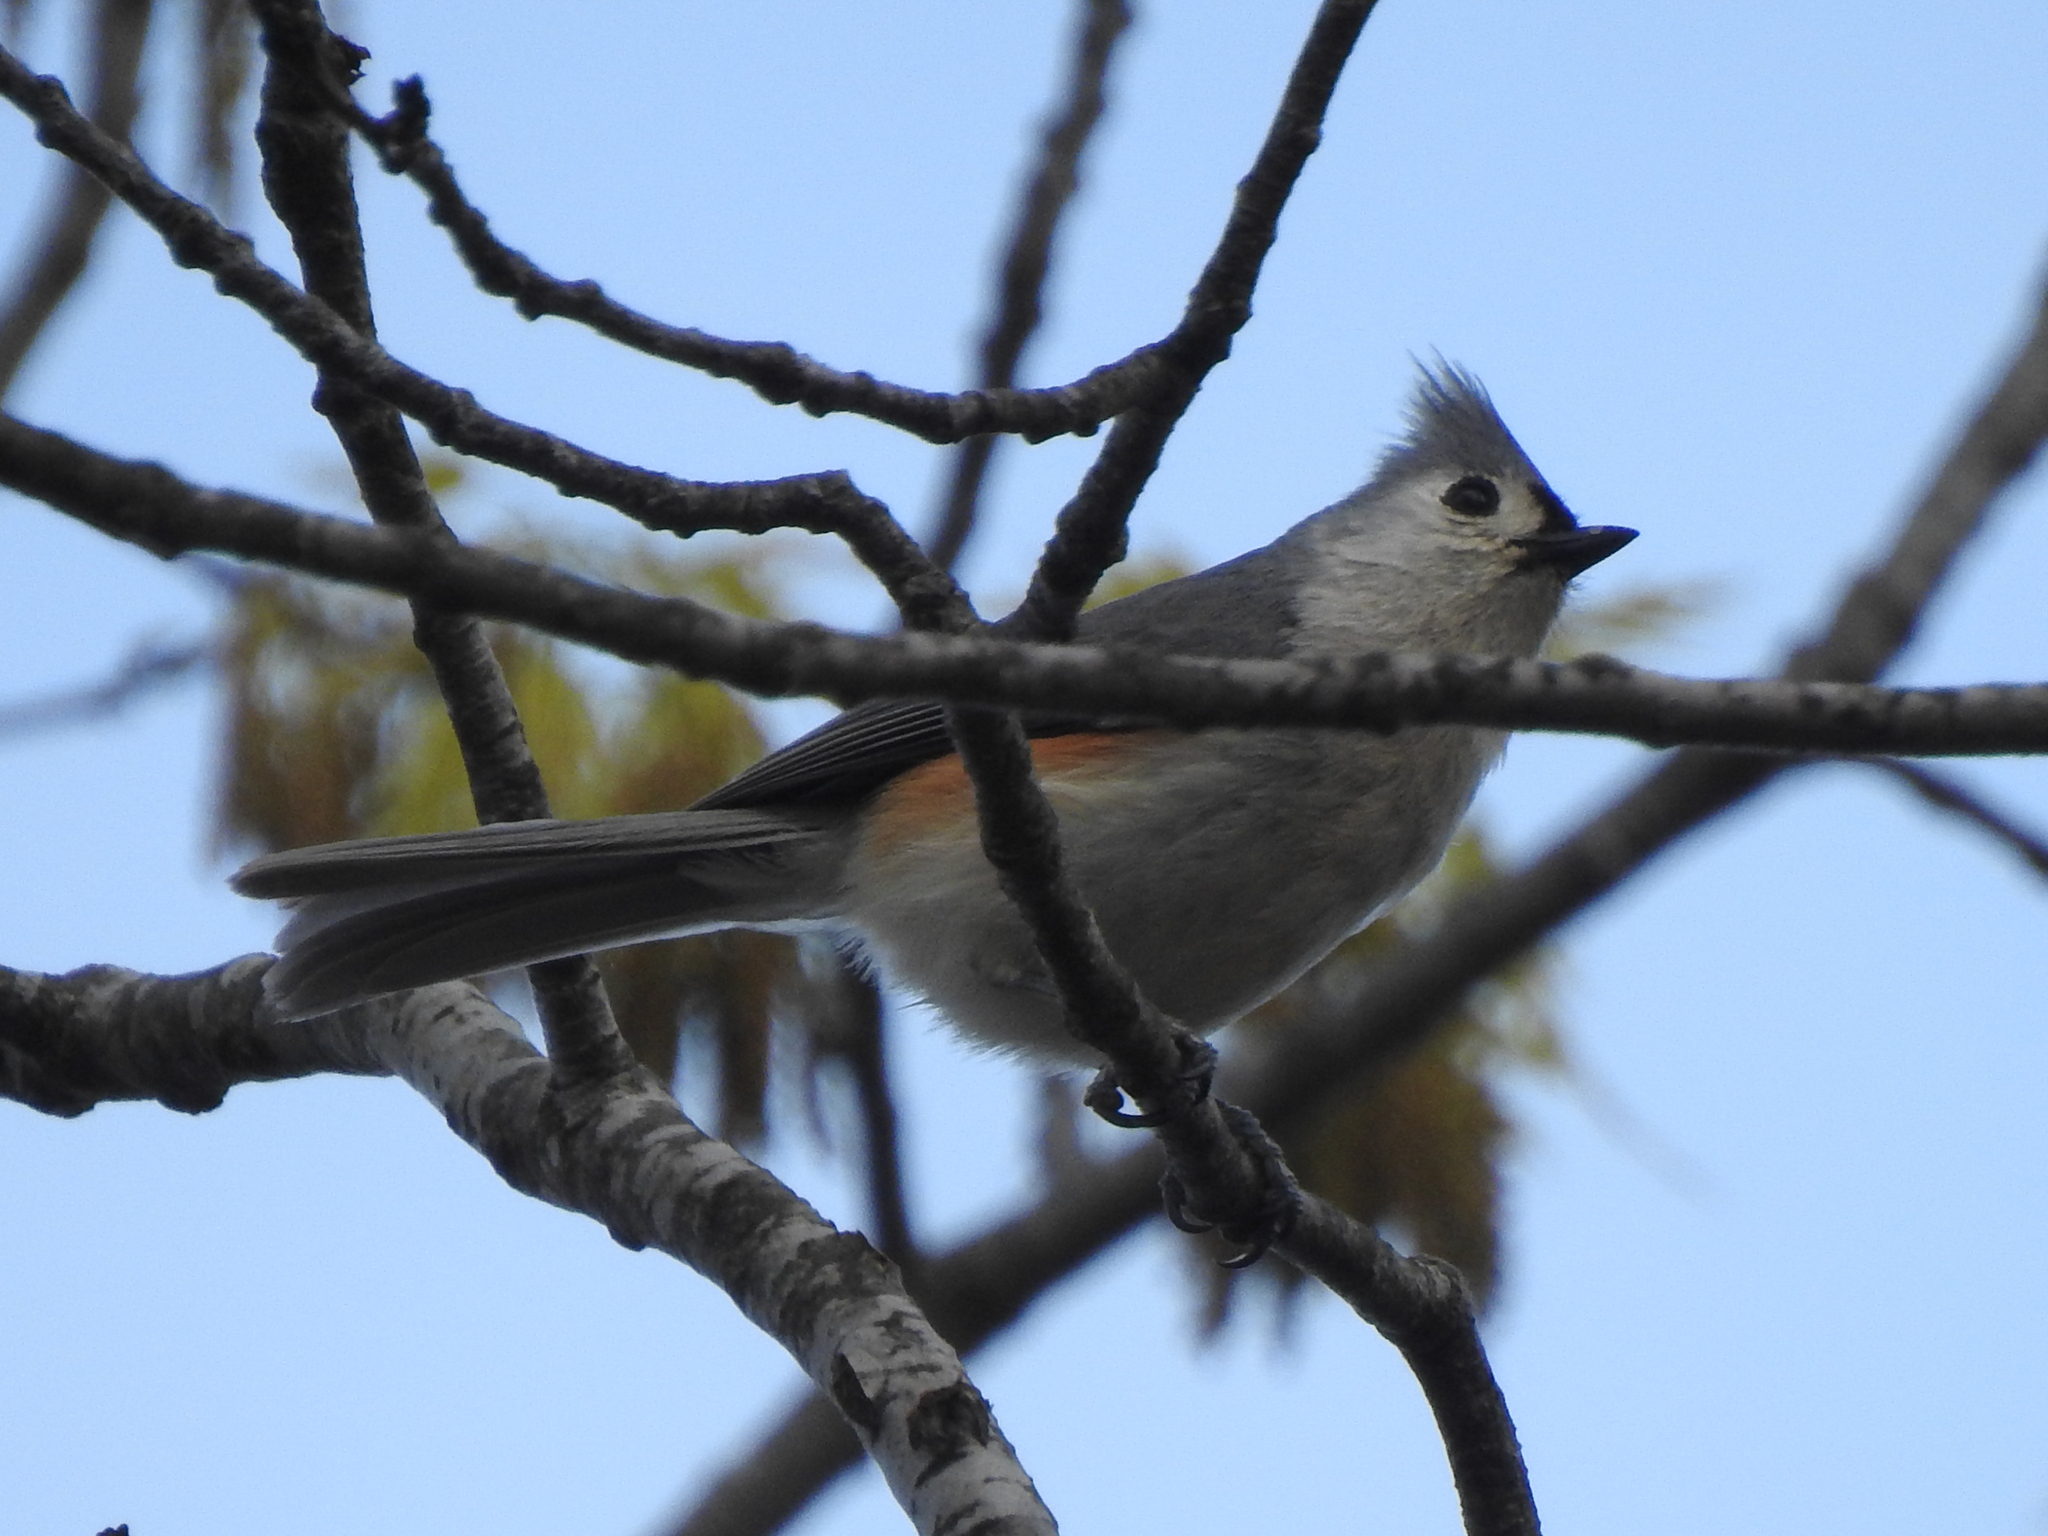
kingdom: Animalia
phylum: Chordata
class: Aves
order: Passeriformes
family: Paridae
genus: Baeolophus
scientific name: Baeolophus bicolor
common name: Tufted titmouse
